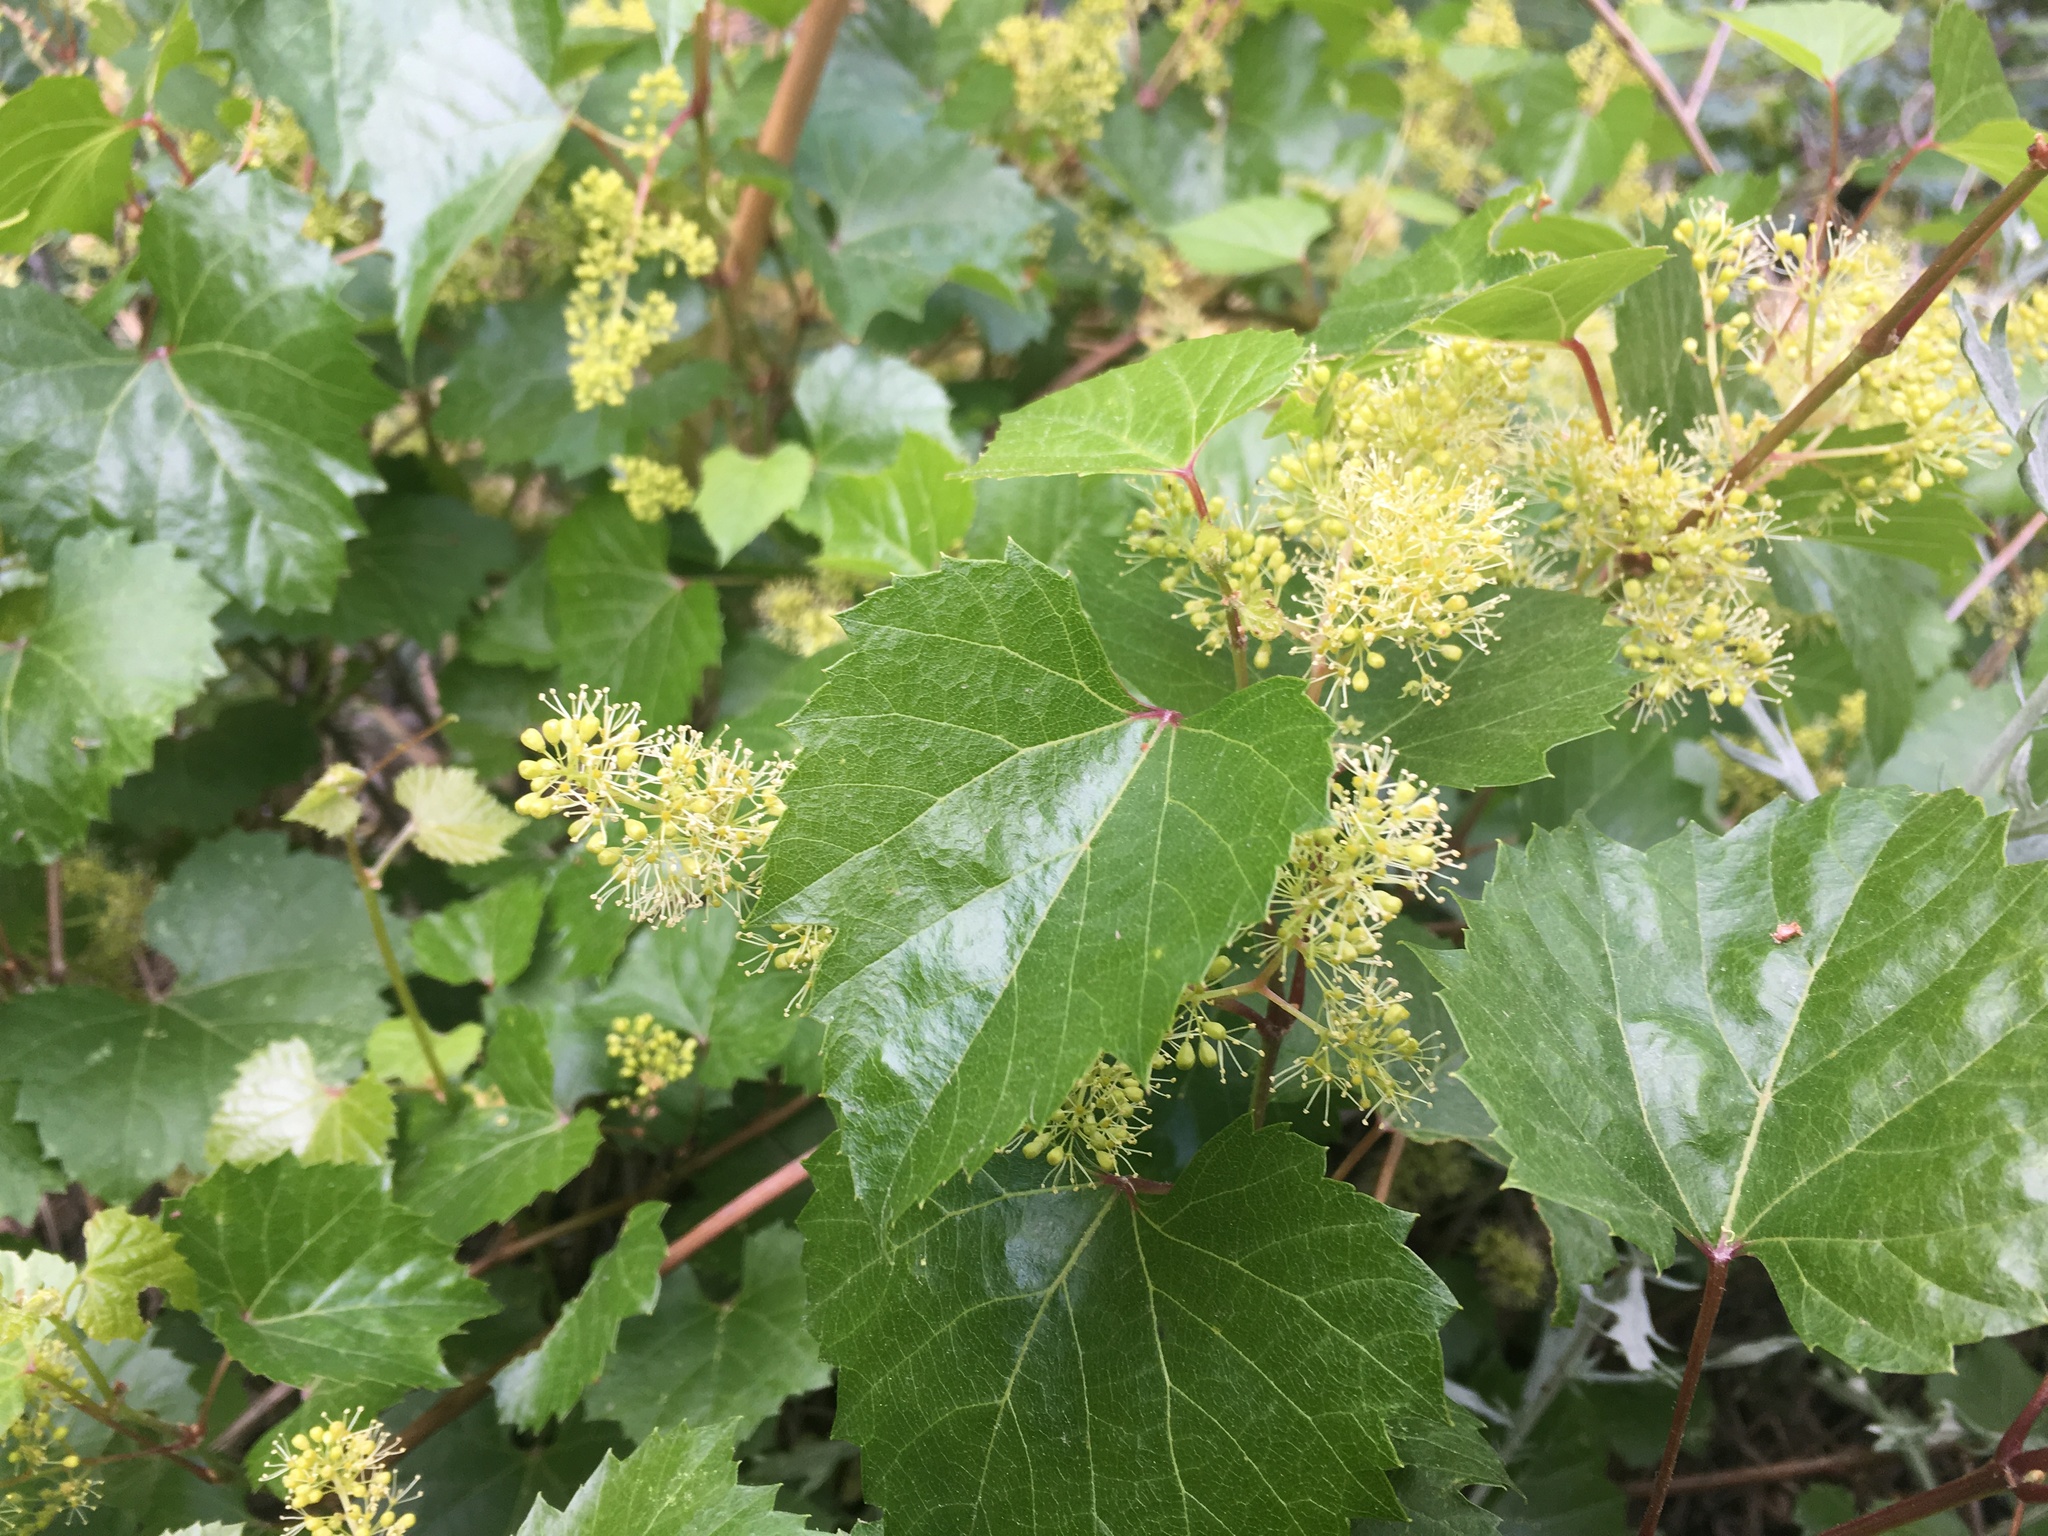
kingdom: Plantae
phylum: Tracheophyta
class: Magnoliopsida
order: Vitales
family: Vitaceae
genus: Vitis
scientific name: Vitis arizonica
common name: Canyon grape
